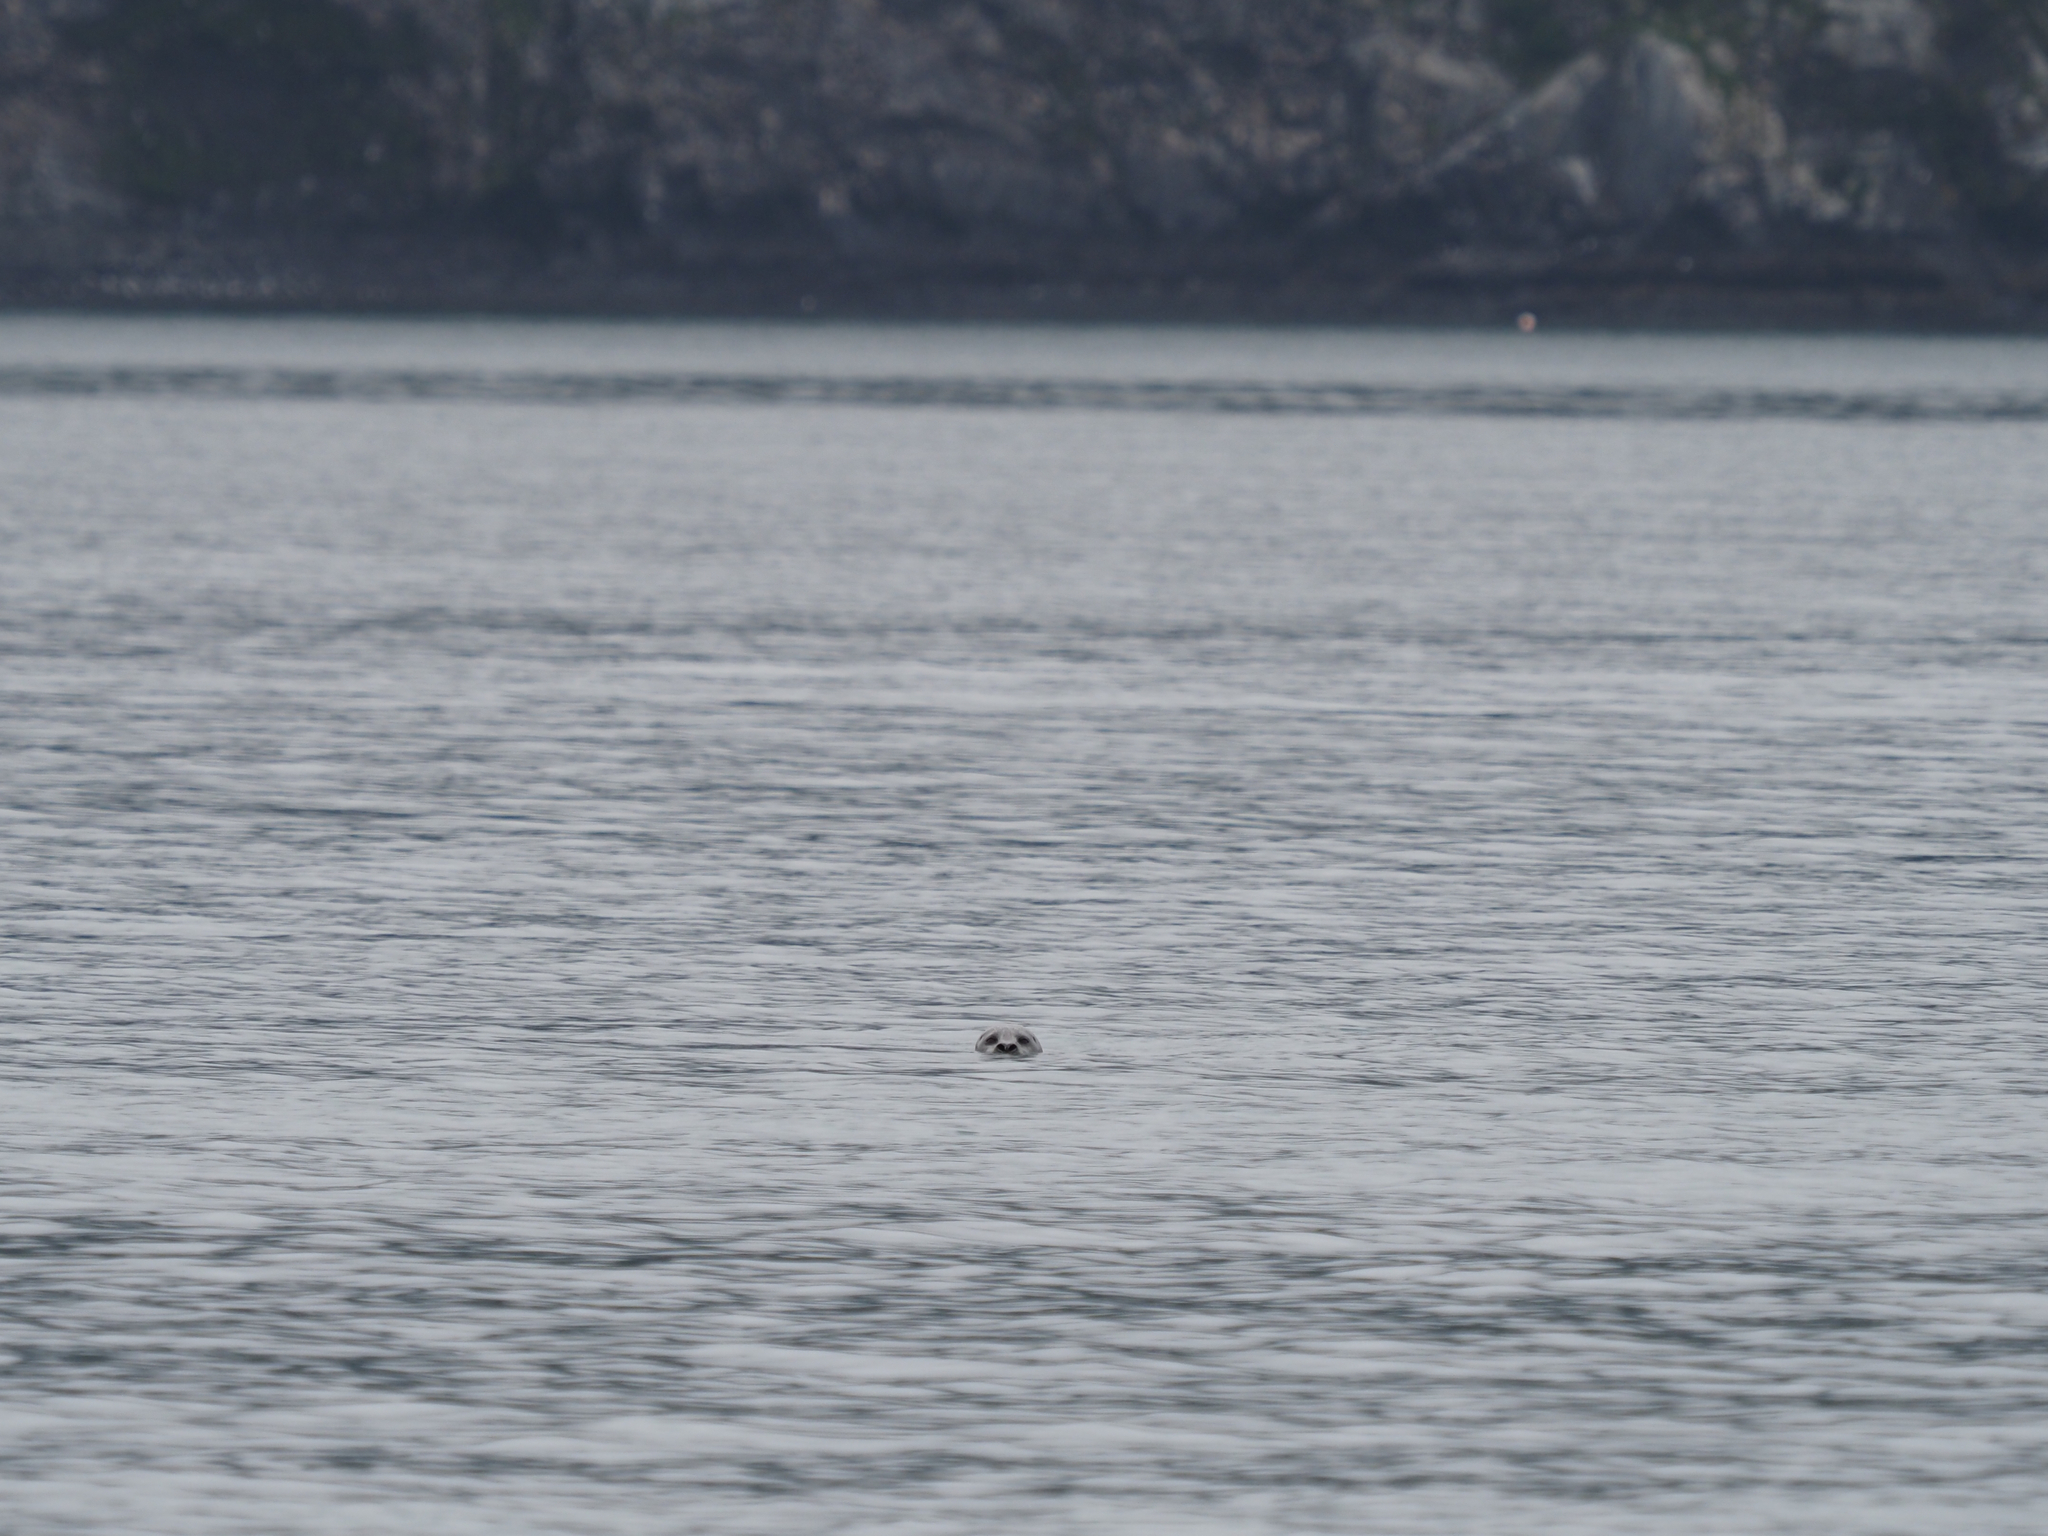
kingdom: Animalia
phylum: Chordata
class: Mammalia
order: Carnivora
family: Phocidae
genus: Phoca
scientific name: Phoca vitulina
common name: Harbor seal
